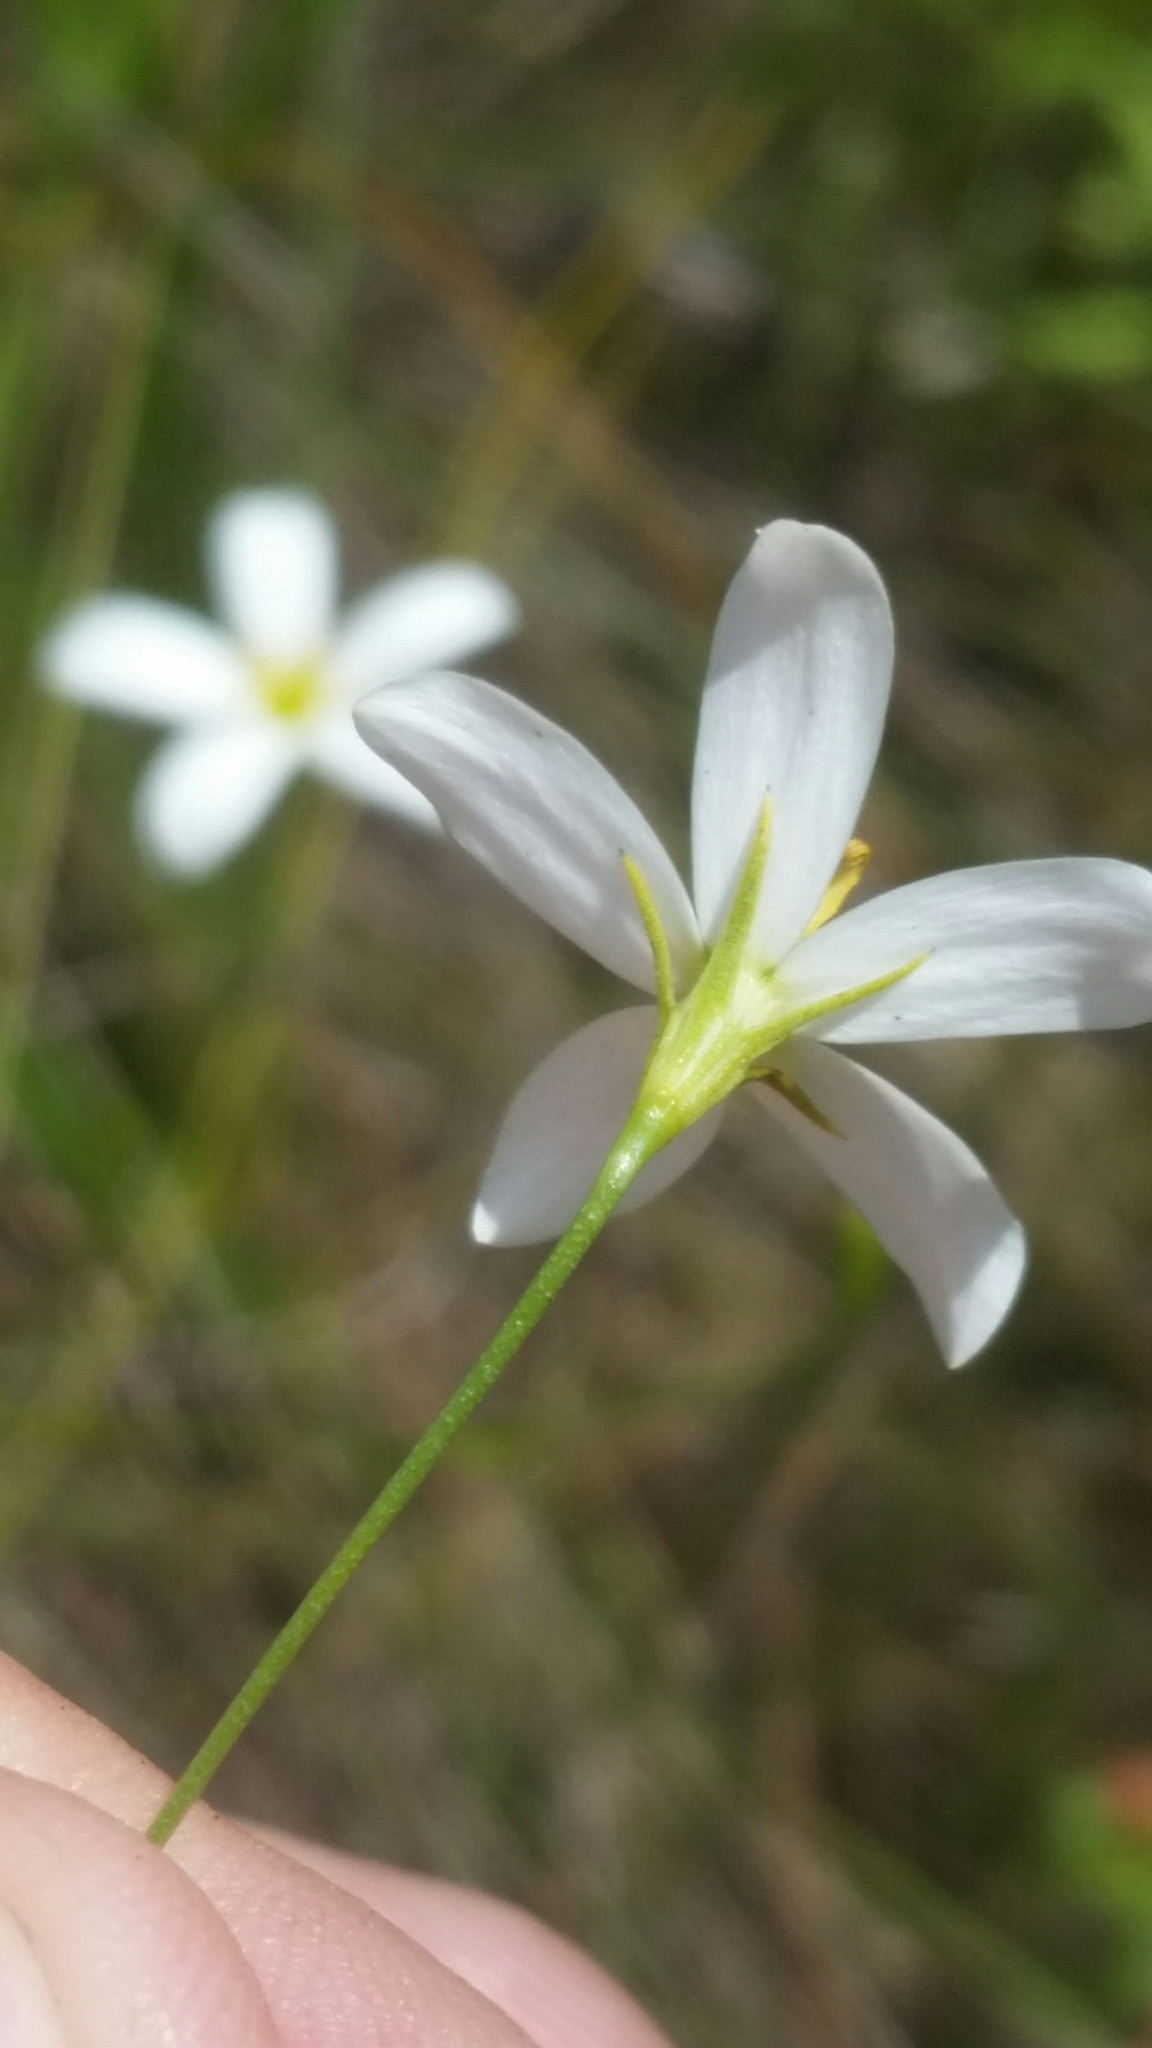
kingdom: Plantae
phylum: Tracheophyta
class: Magnoliopsida
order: Gentianales
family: Gentianaceae
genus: Sabatia
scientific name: Sabatia brevifolia
